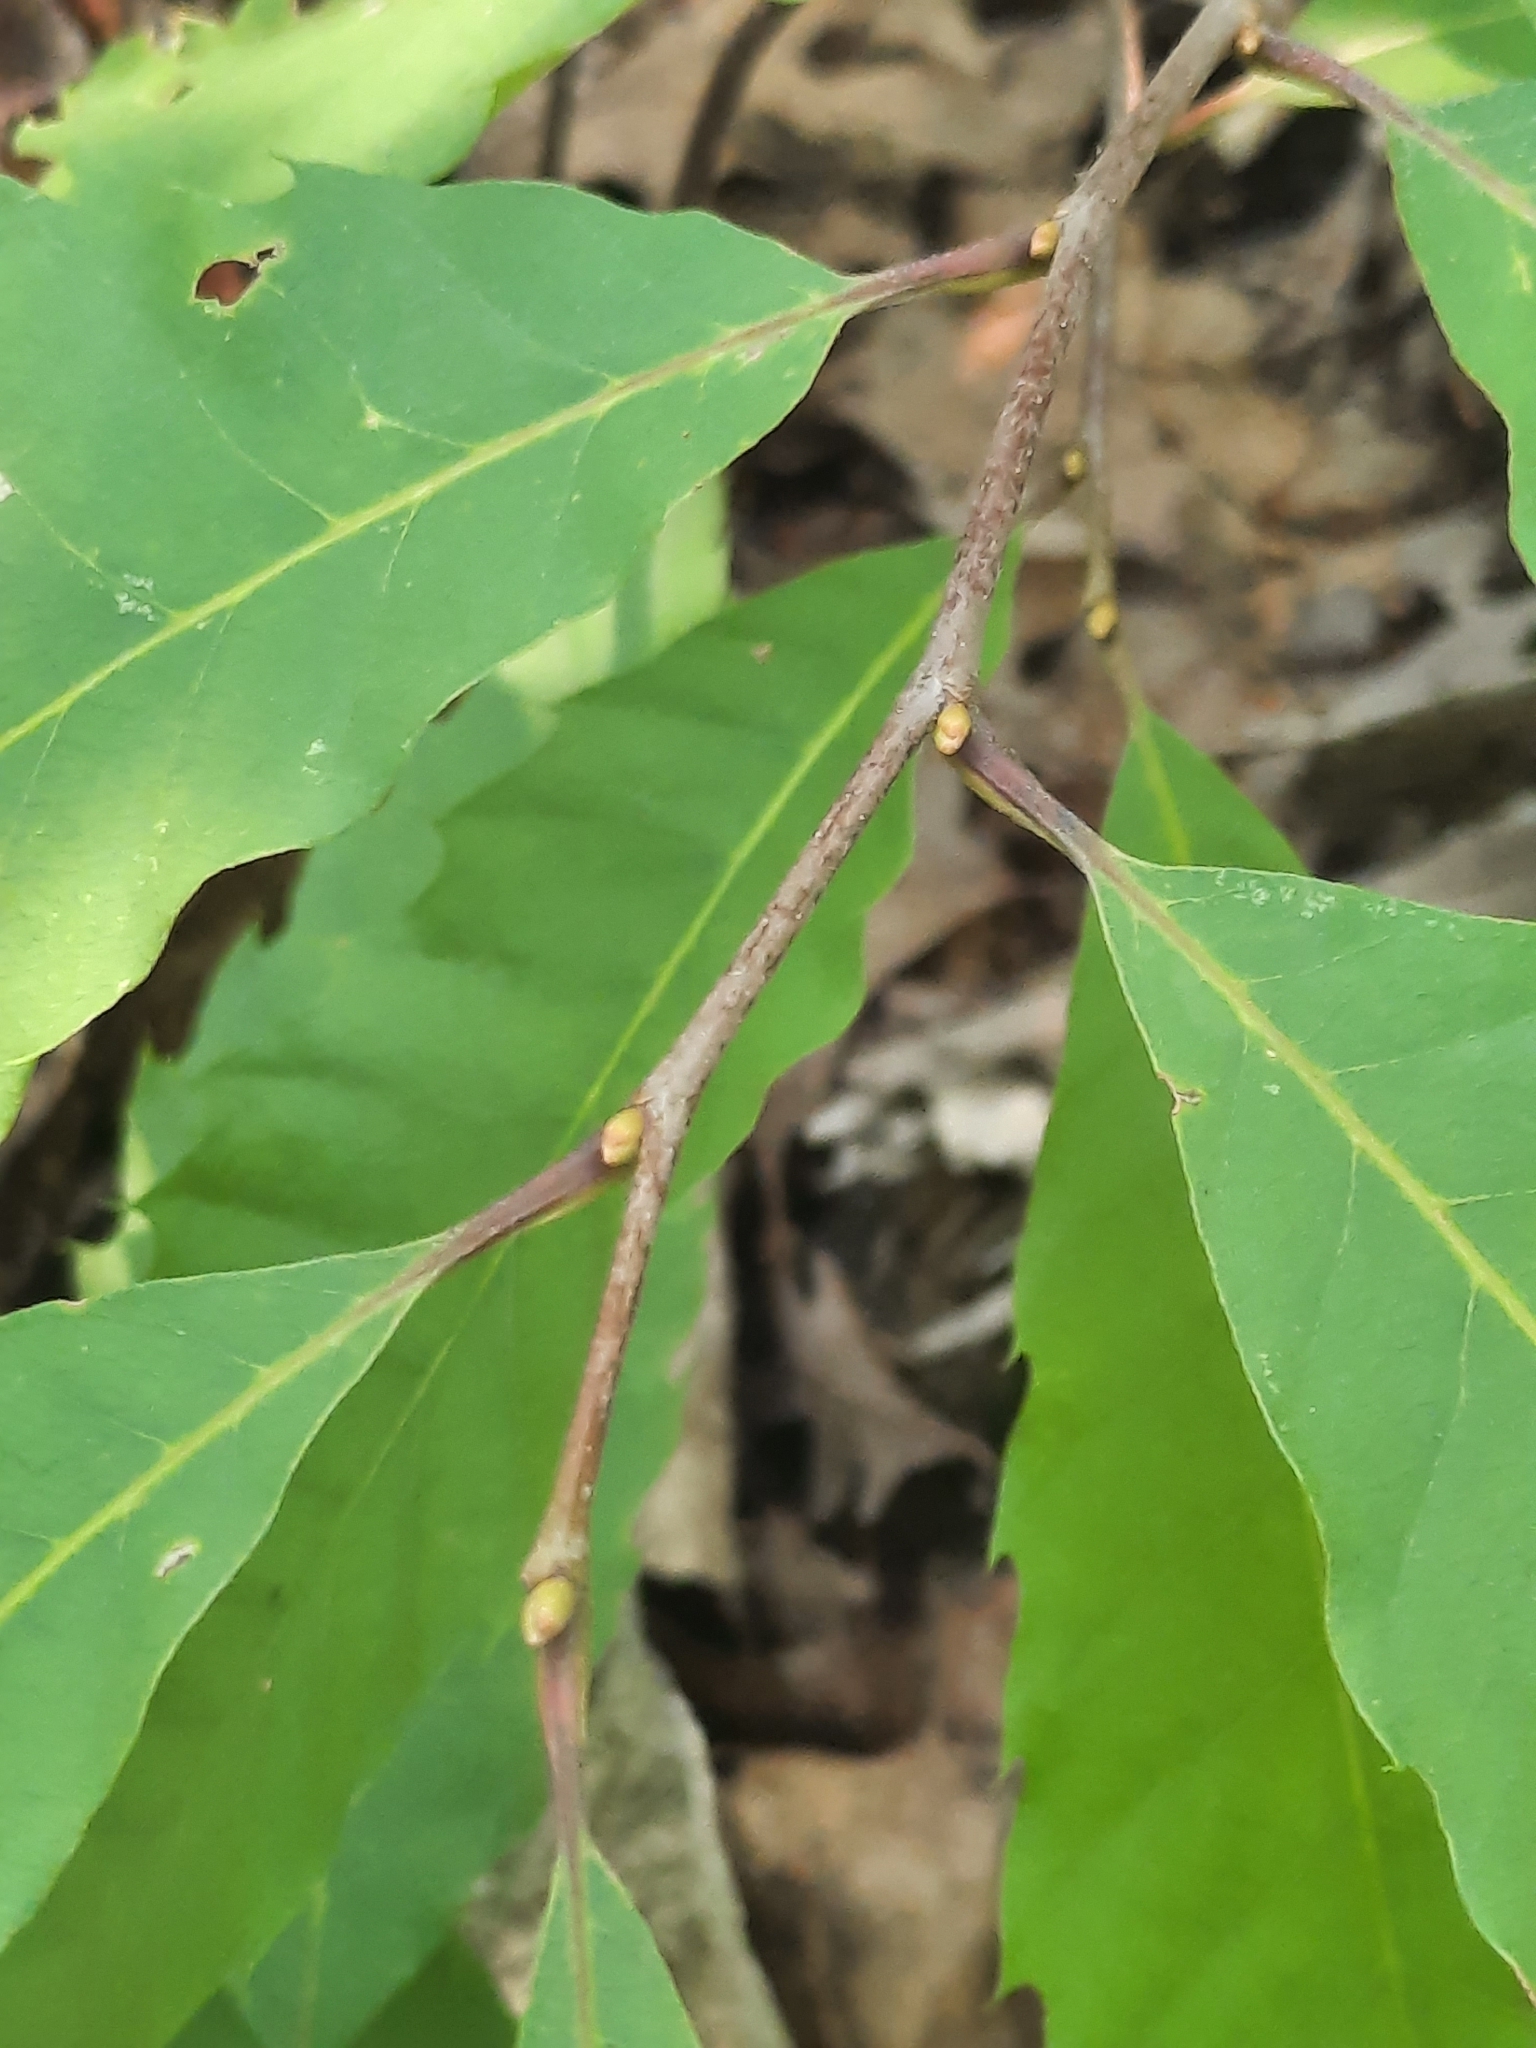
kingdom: Plantae
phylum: Tracheophyta
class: Magnoliopsida
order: Fagales
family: Fagaceae
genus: Castanea
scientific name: Castanea dentata
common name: American chestnut
